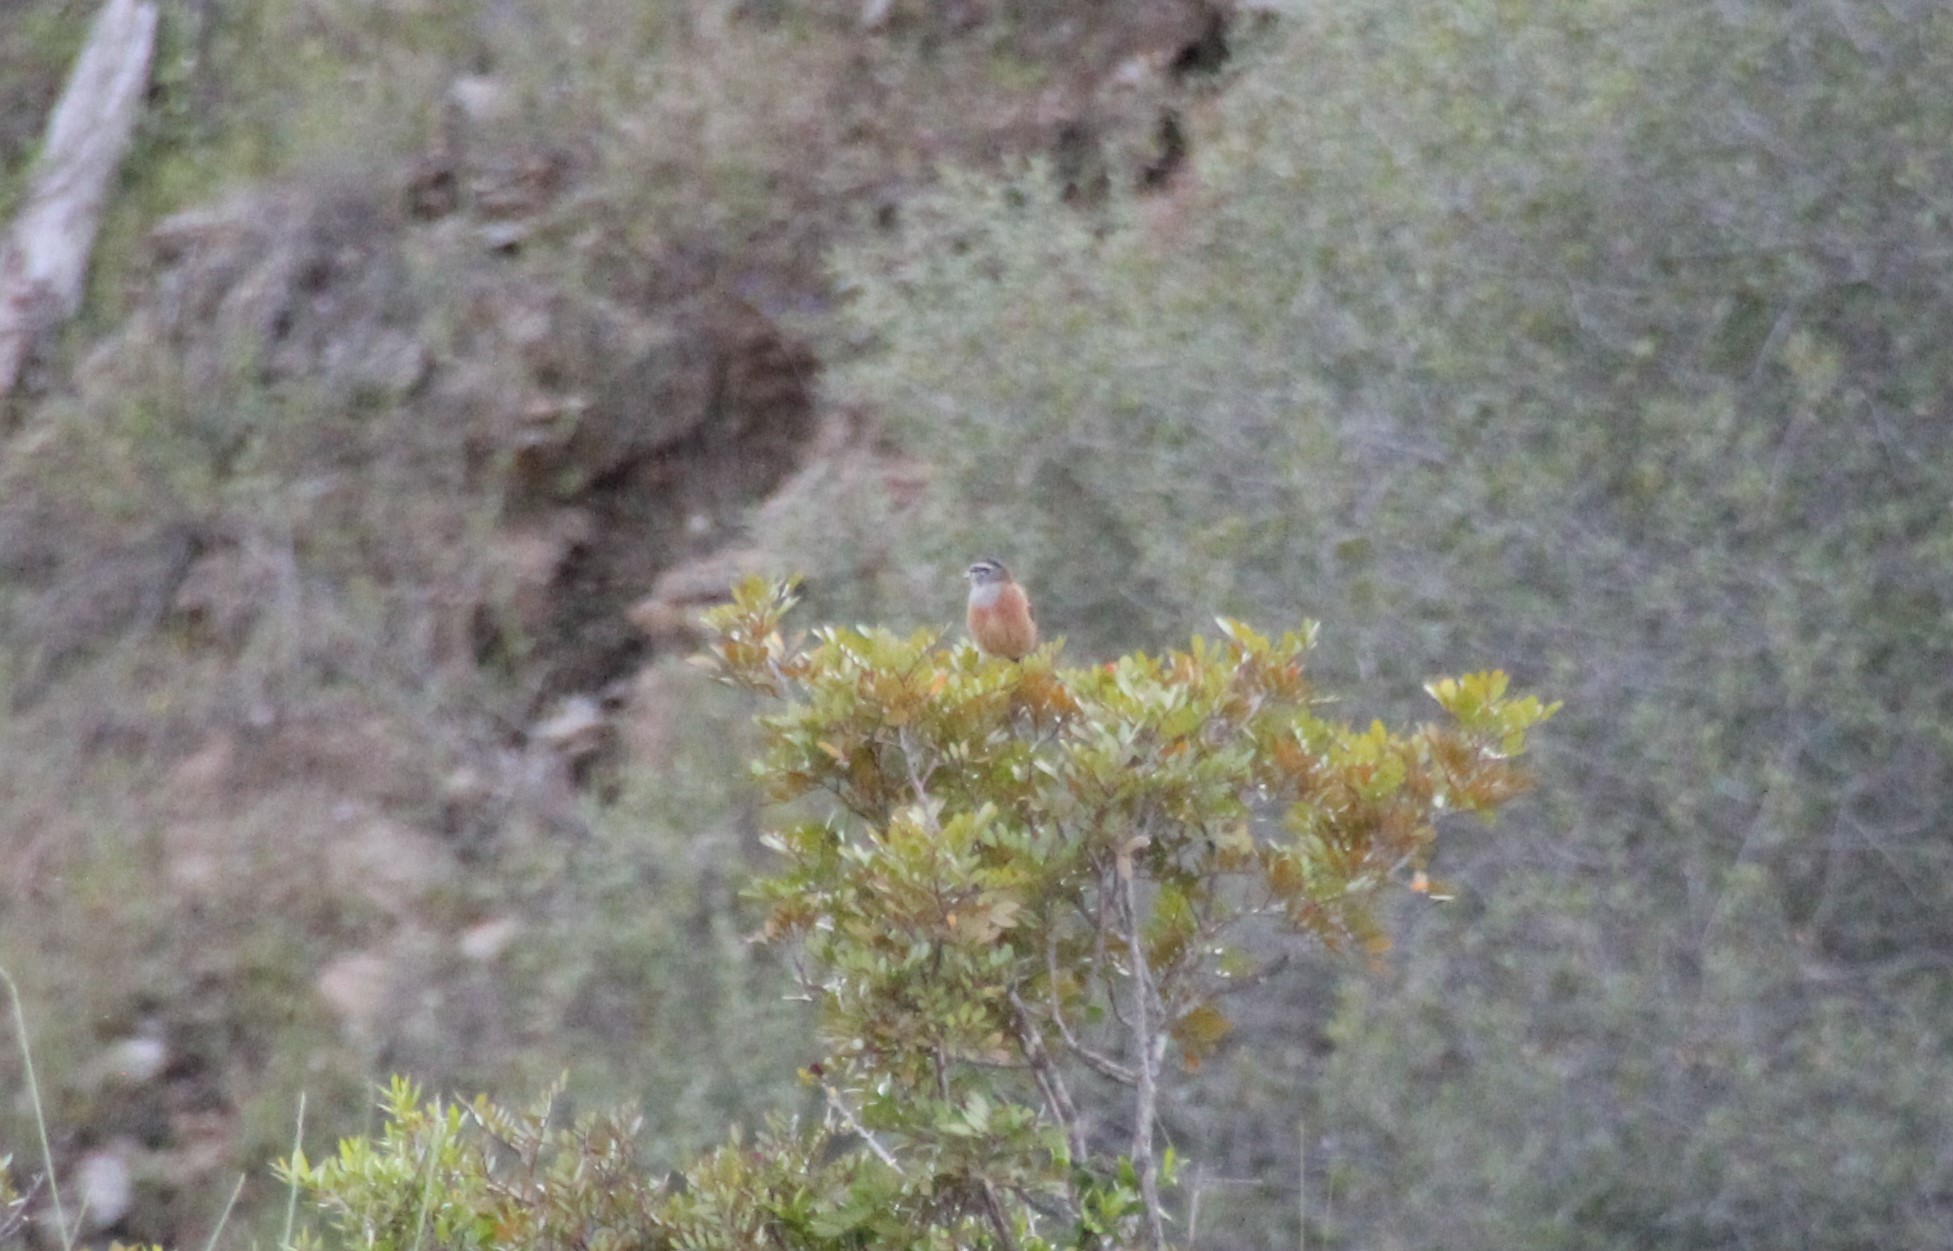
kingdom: Animalia
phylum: Chordata
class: Aves
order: Passeriformes
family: Emberizidae
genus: Emberiza
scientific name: Emberiza cia
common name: Rock bunting
